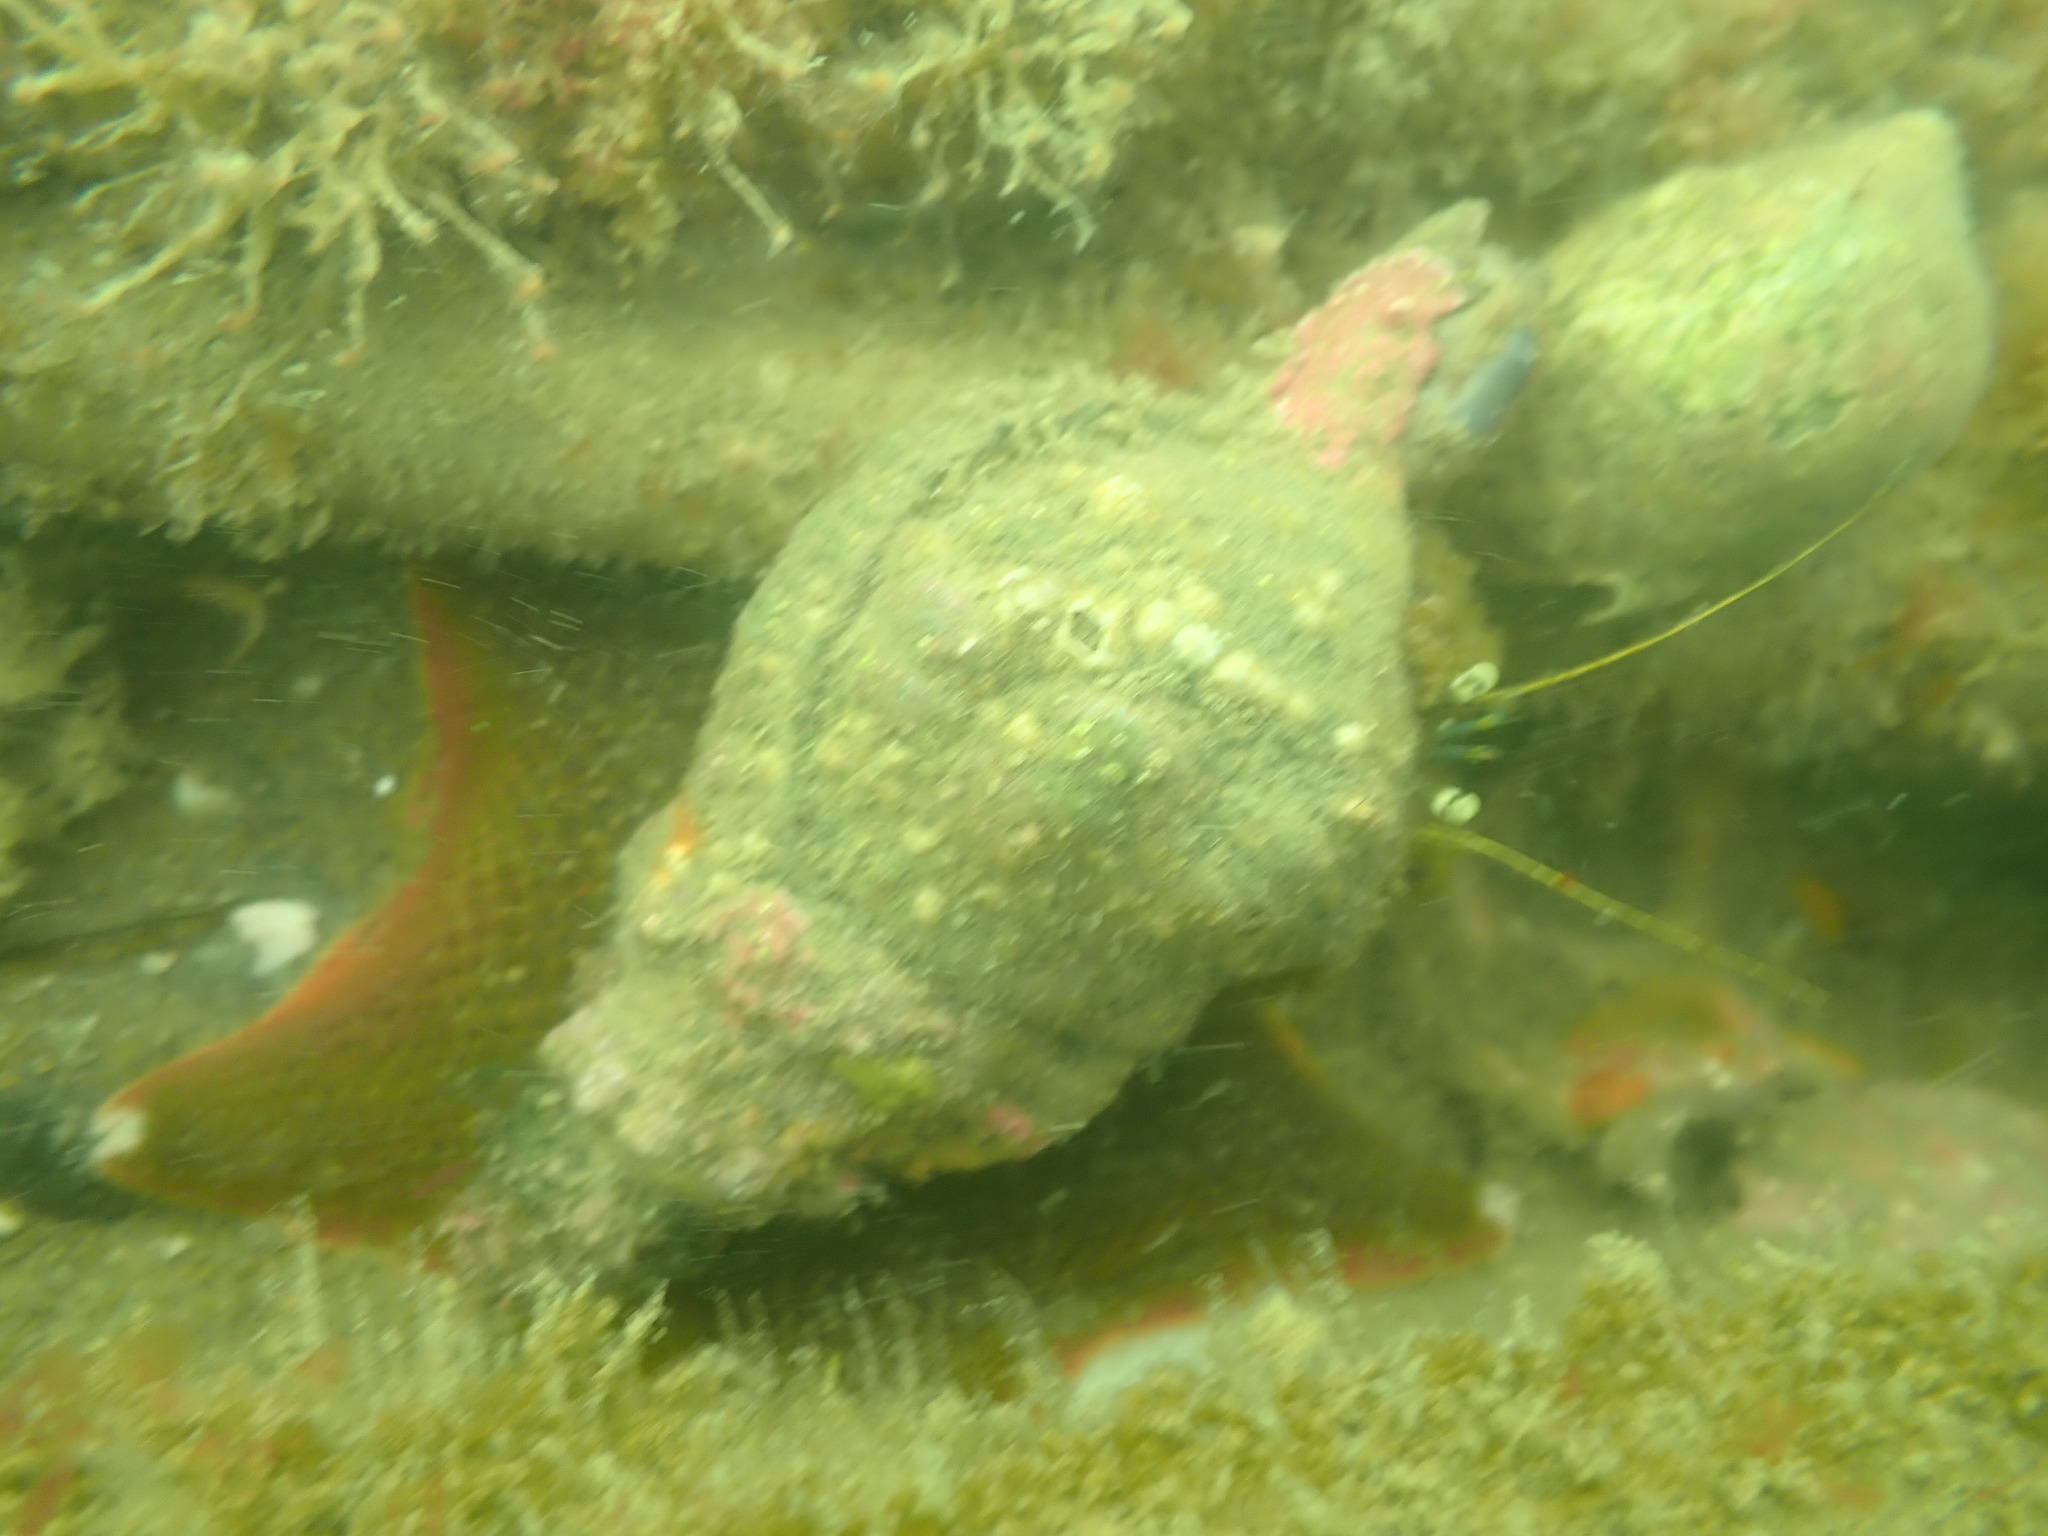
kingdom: Animalia
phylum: Mollusca
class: Gastropoda
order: Littorinimorpha
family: Cymatiidae
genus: Cabestana
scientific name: Cabestana spengleri
